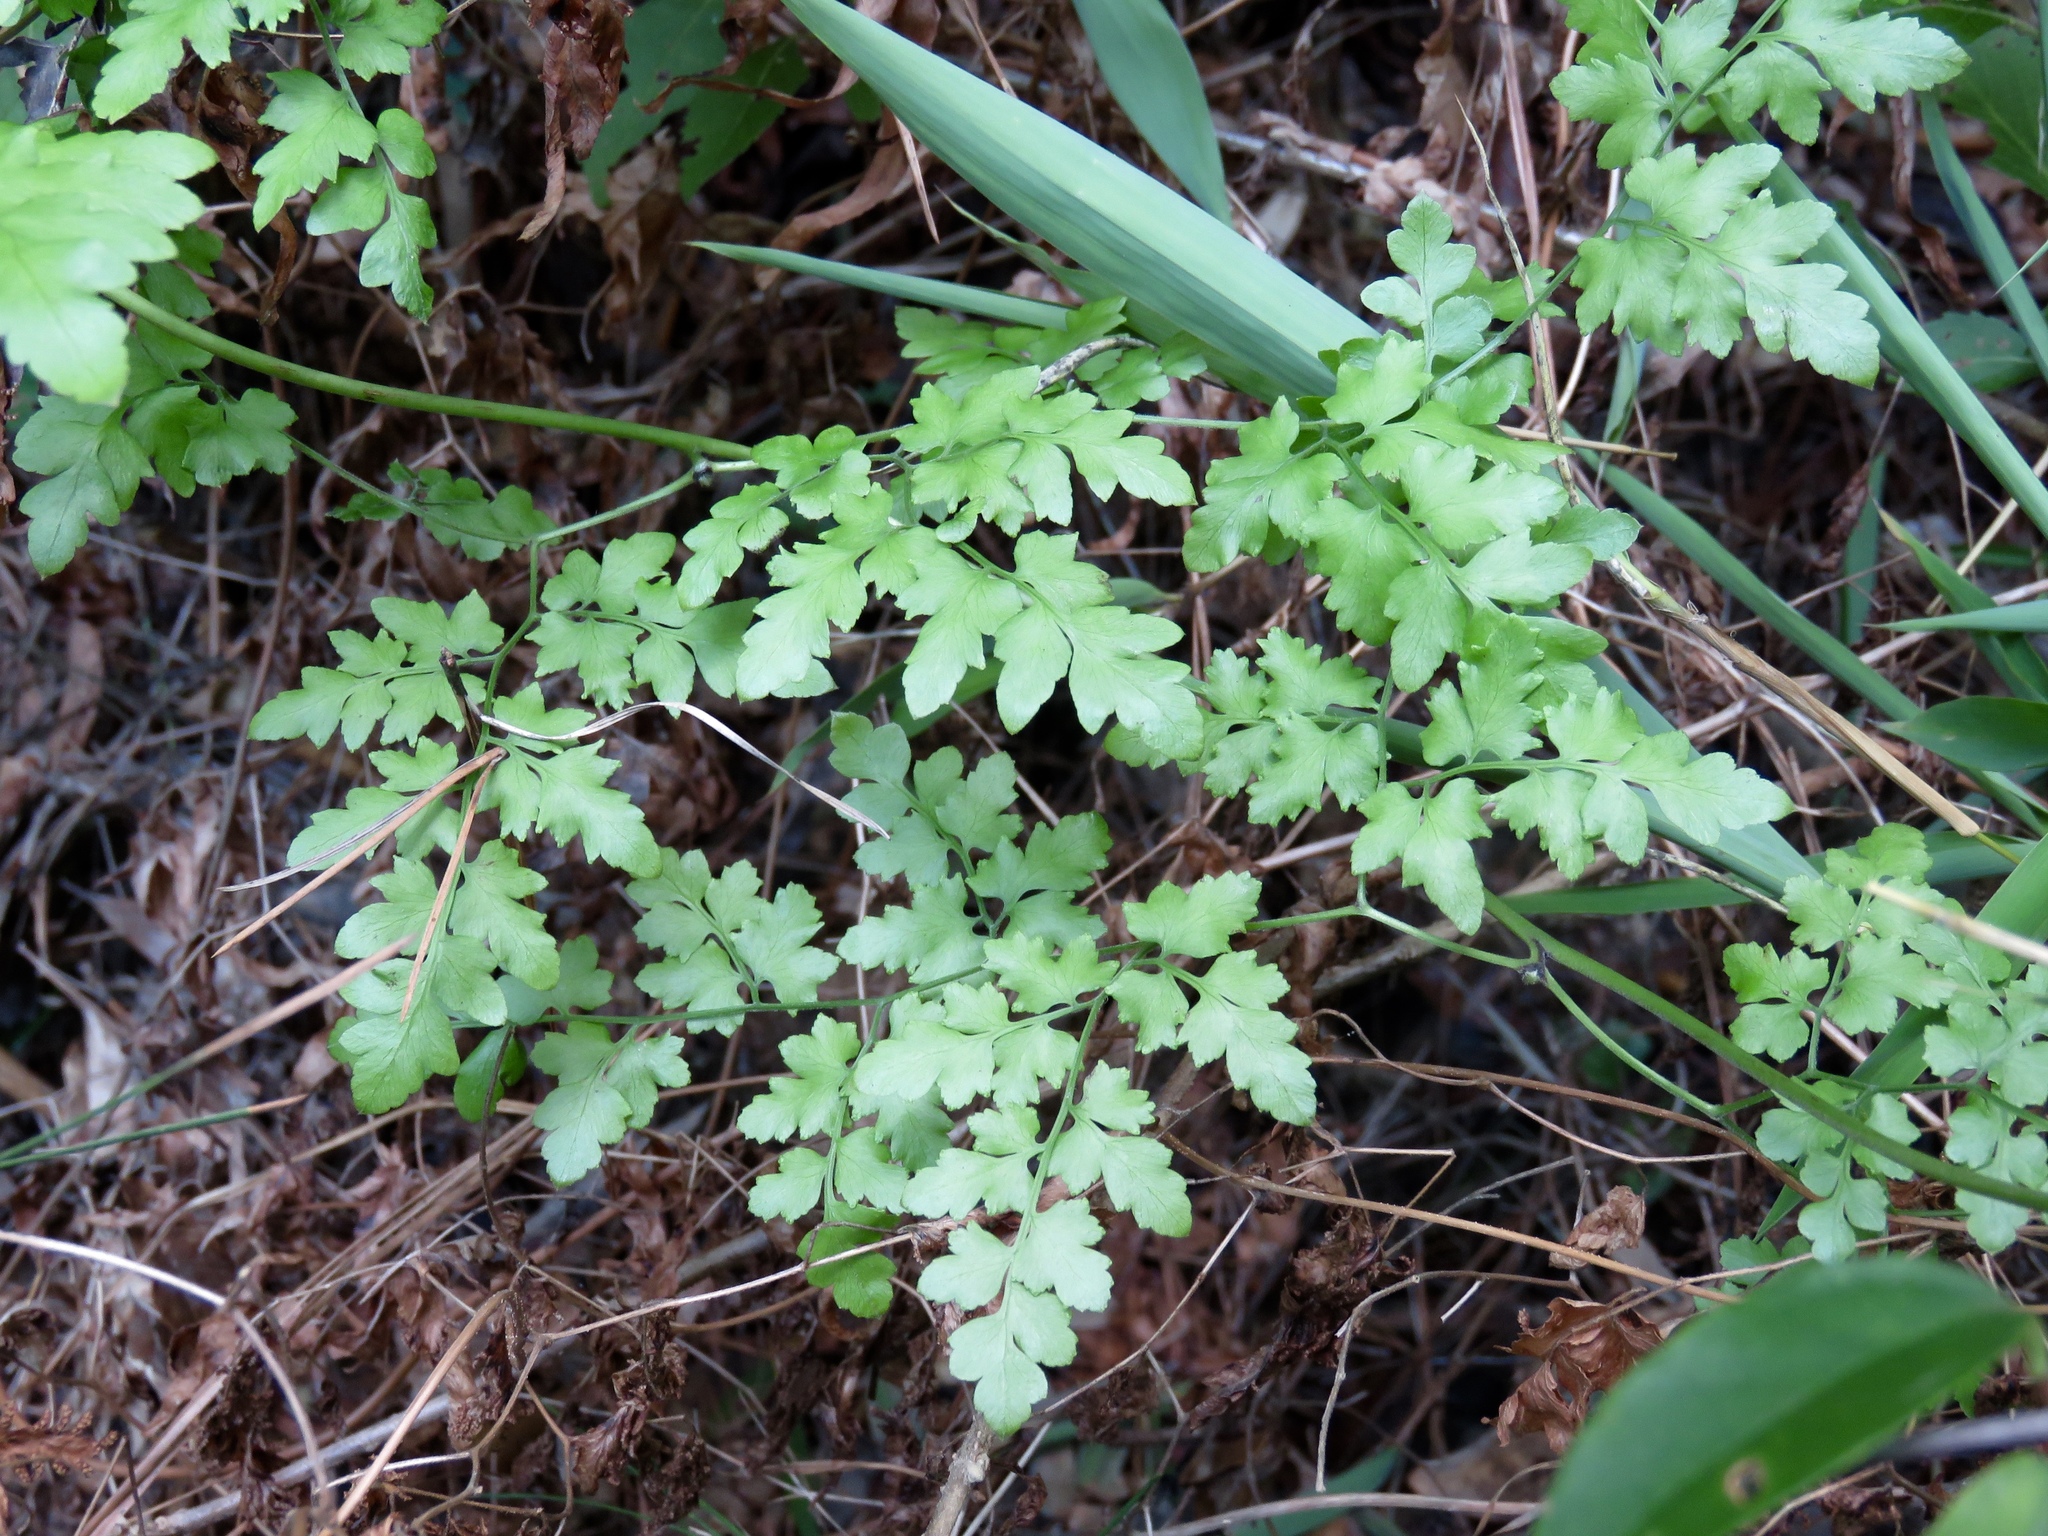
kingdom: Plantae
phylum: Tracheophyta
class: Polypodiopsida
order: Schizaeales
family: Lygodiaceae
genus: Lygodium
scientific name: Lygodium japonicum
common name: Japanese climbing fern
